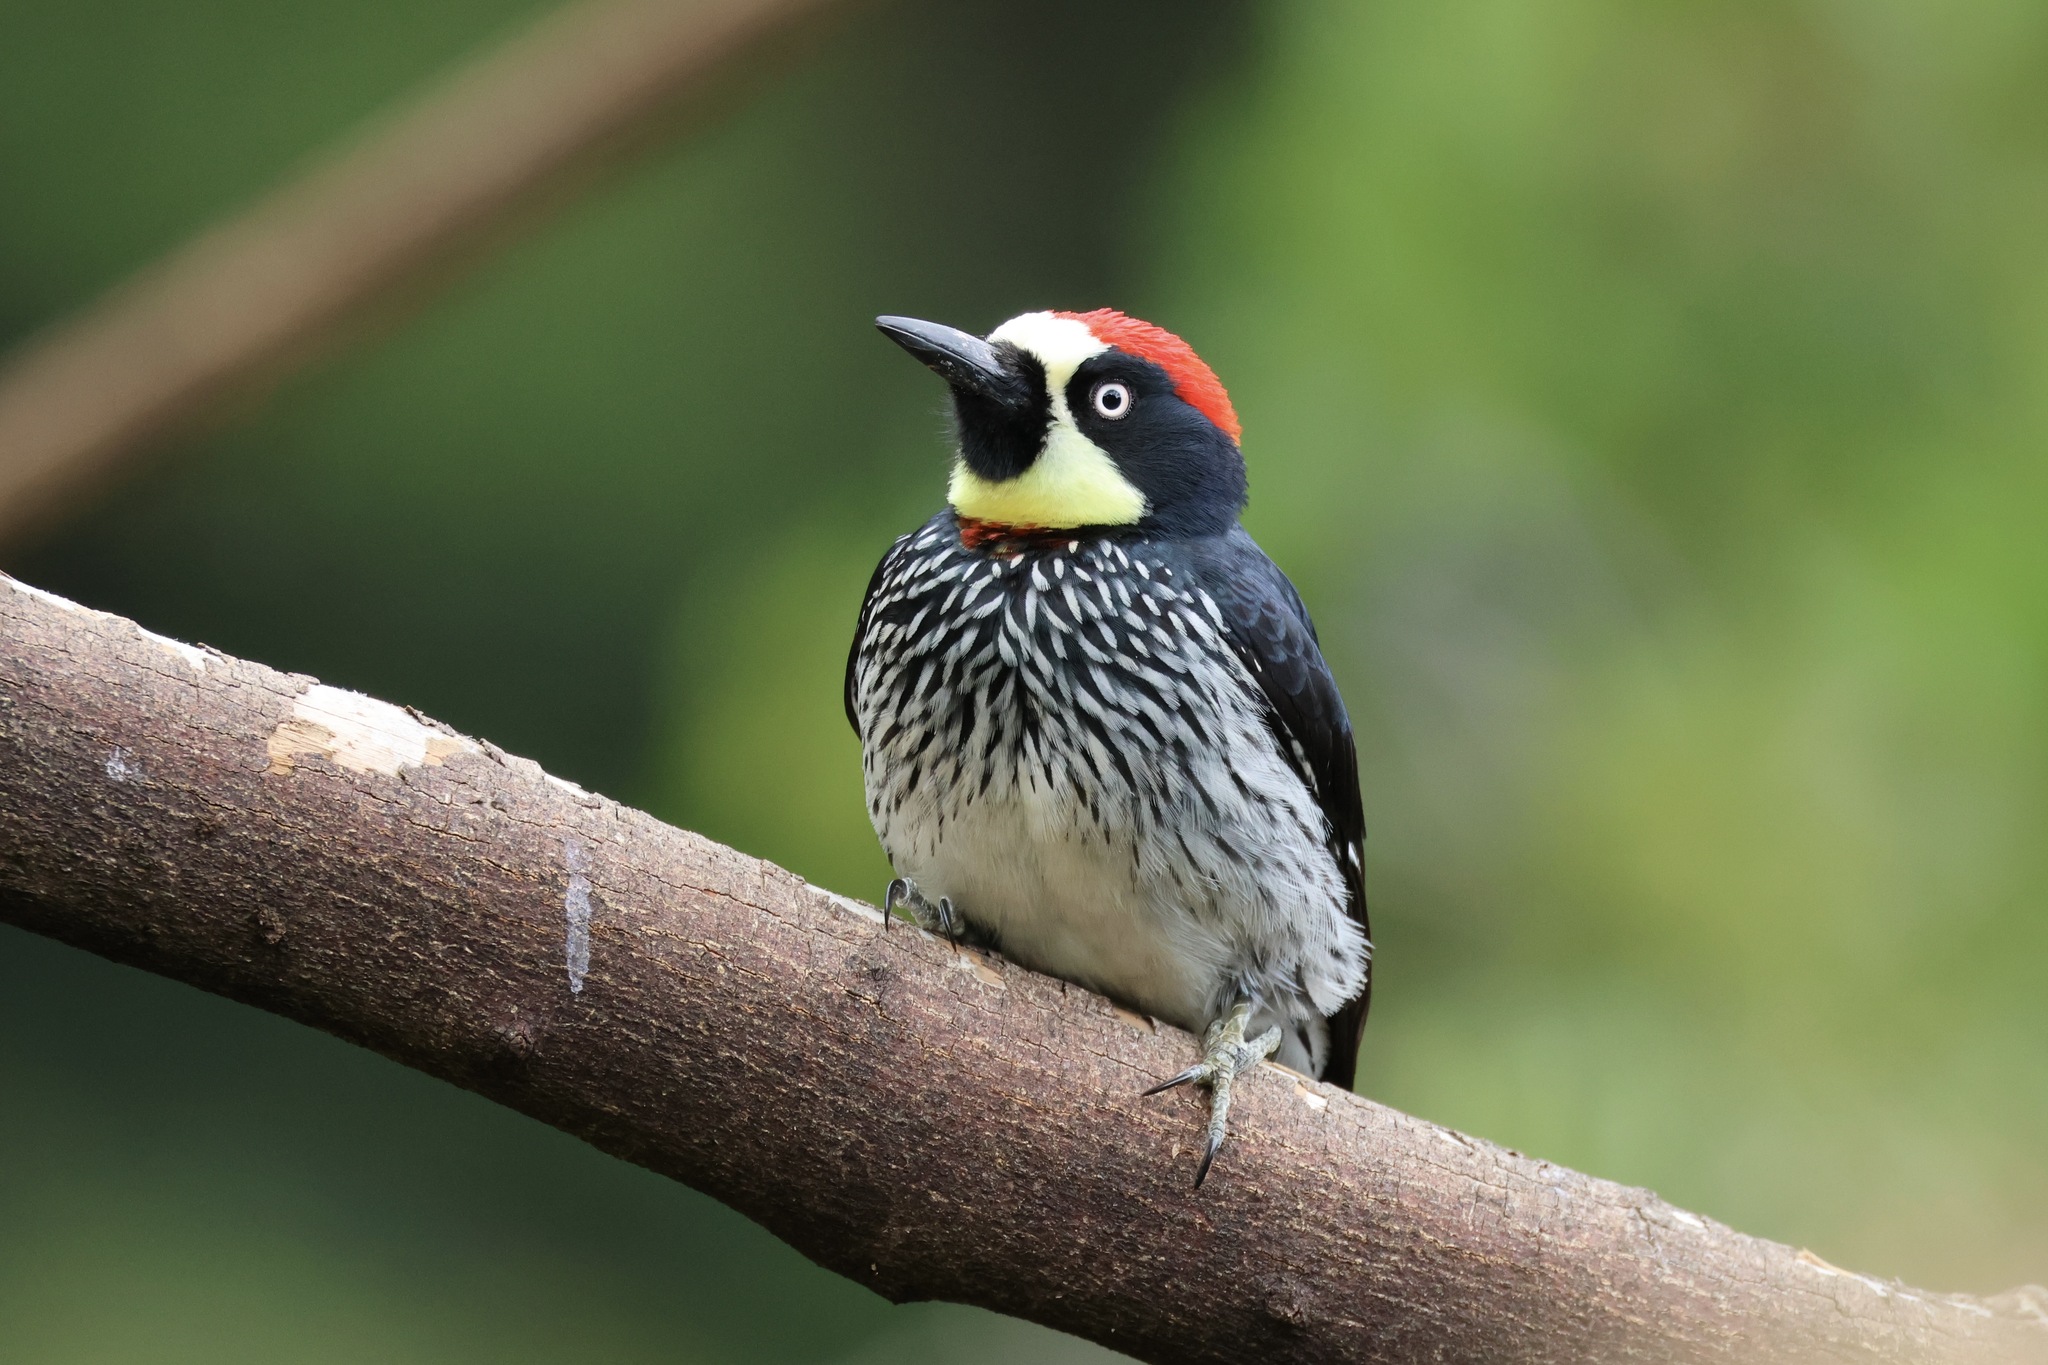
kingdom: Animalia
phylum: Chordata
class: Aves
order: Piciformes
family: Picidae
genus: Melanerpes
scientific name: Melanerpes formicivorus
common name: Acorn woodpecker
